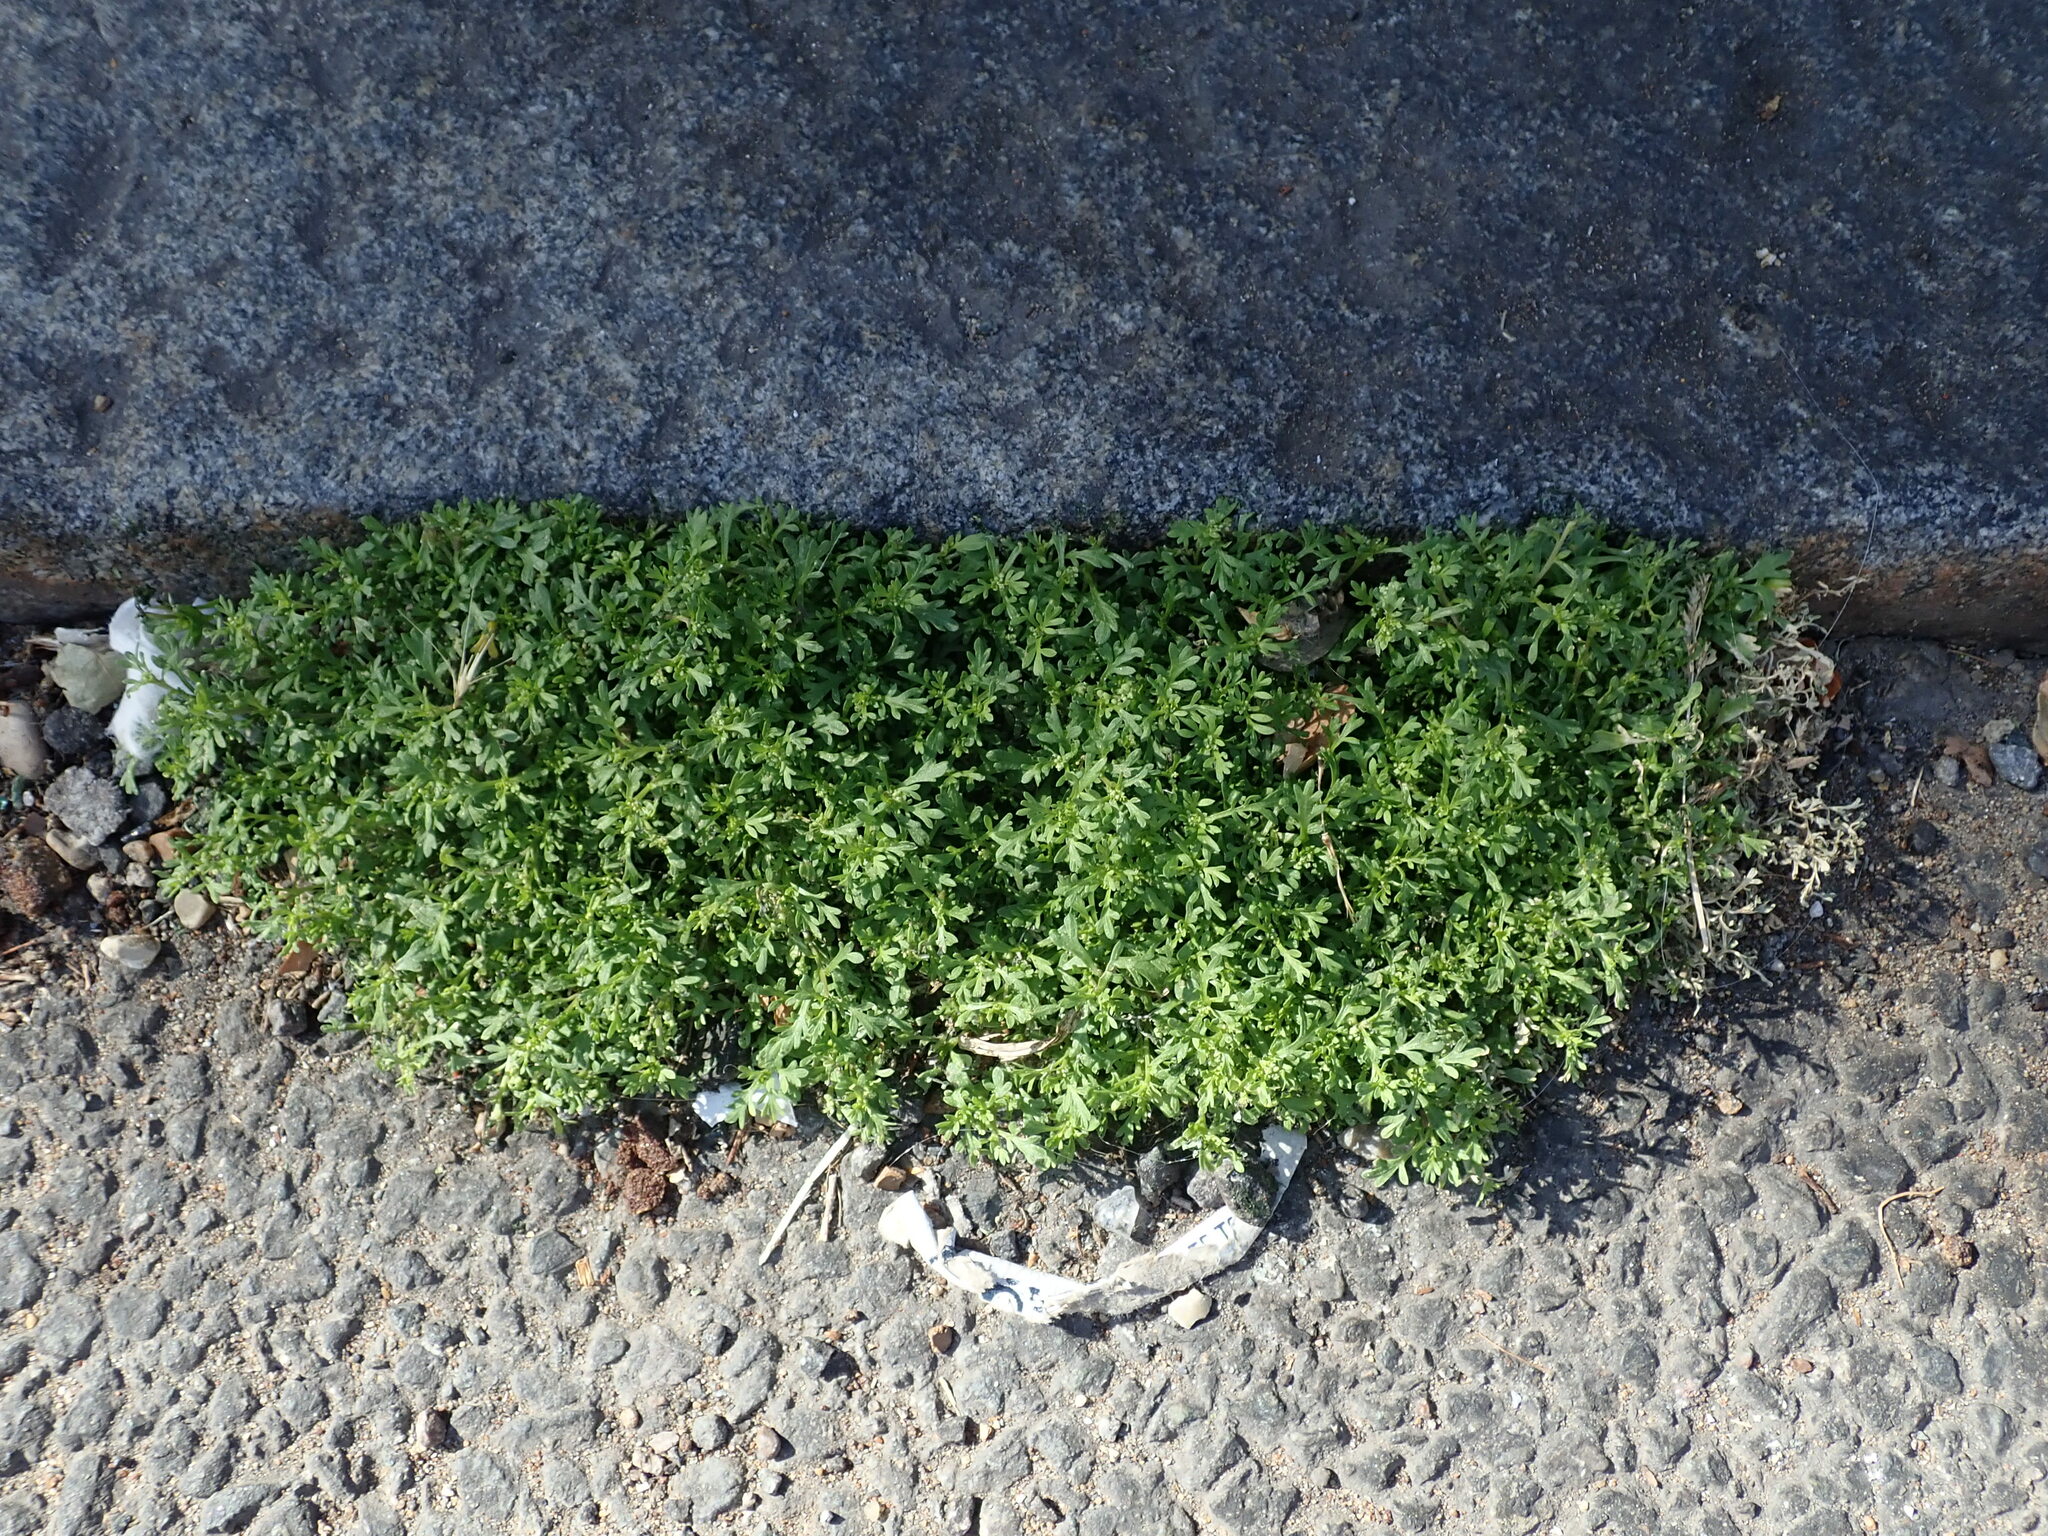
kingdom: Plantae
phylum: Tracheophyta
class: Magnoliopsida
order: Brassicales
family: Brassicaceae
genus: Lepidium
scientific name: Lepidium didymum
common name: Lesser swinecress
